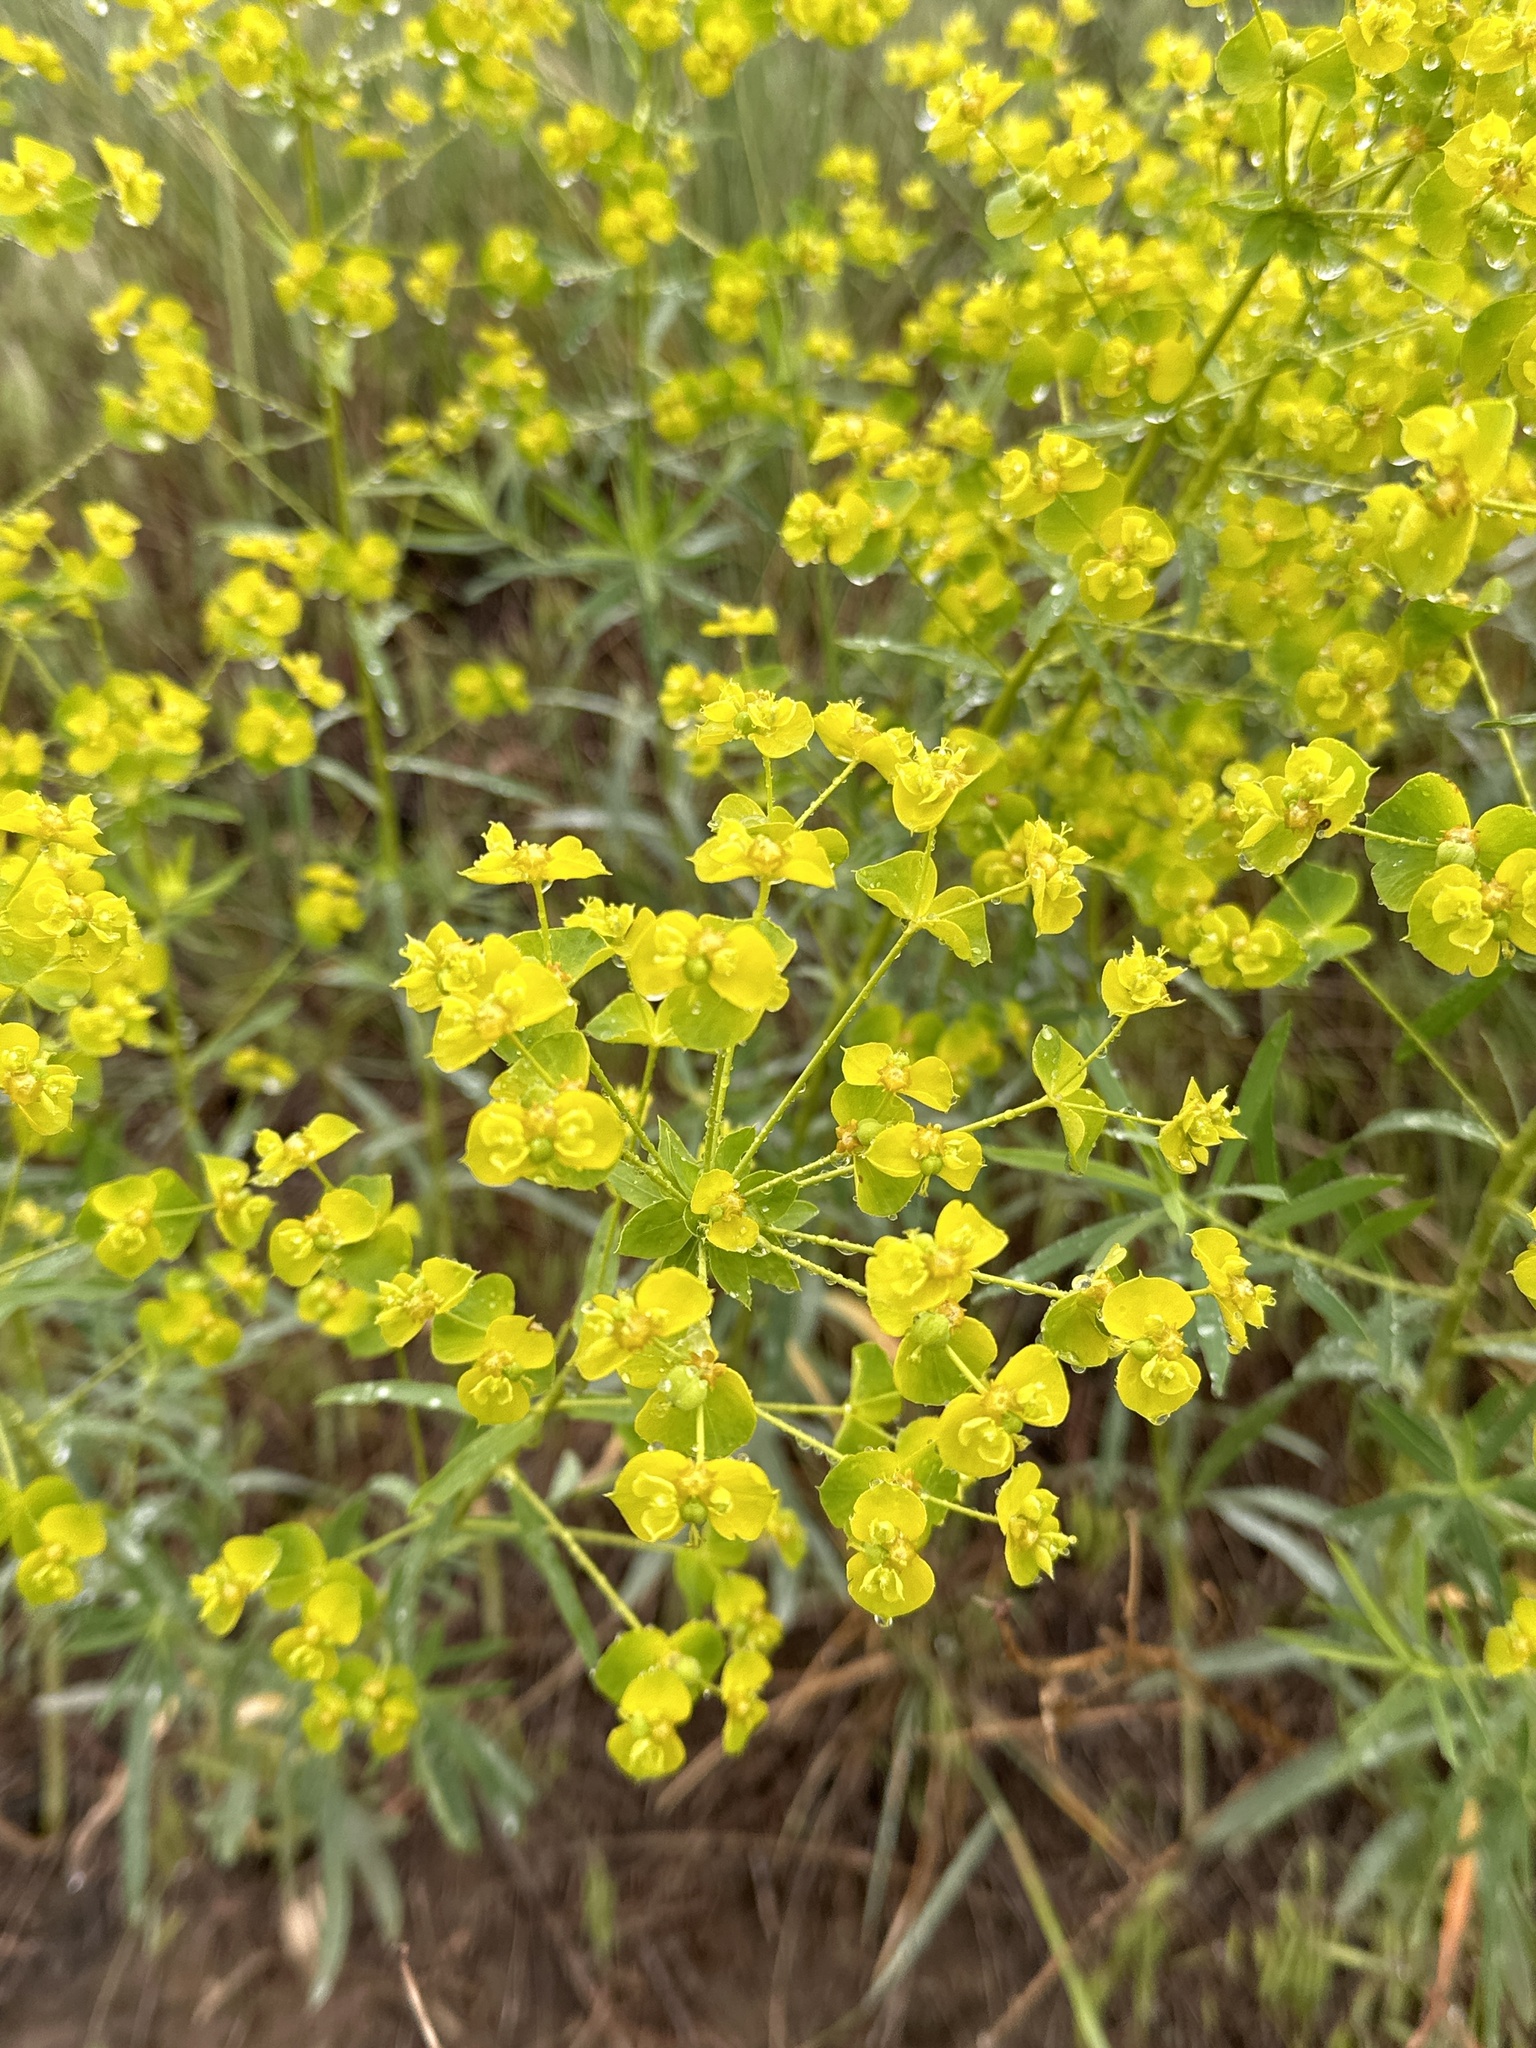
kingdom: Plantae
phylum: Tracheophyta
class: Magnoliopsida
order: Malpighiales
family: Euphorbiaceae
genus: Euphorbia
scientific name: Euphorbia virgata
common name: Leafy spurge
